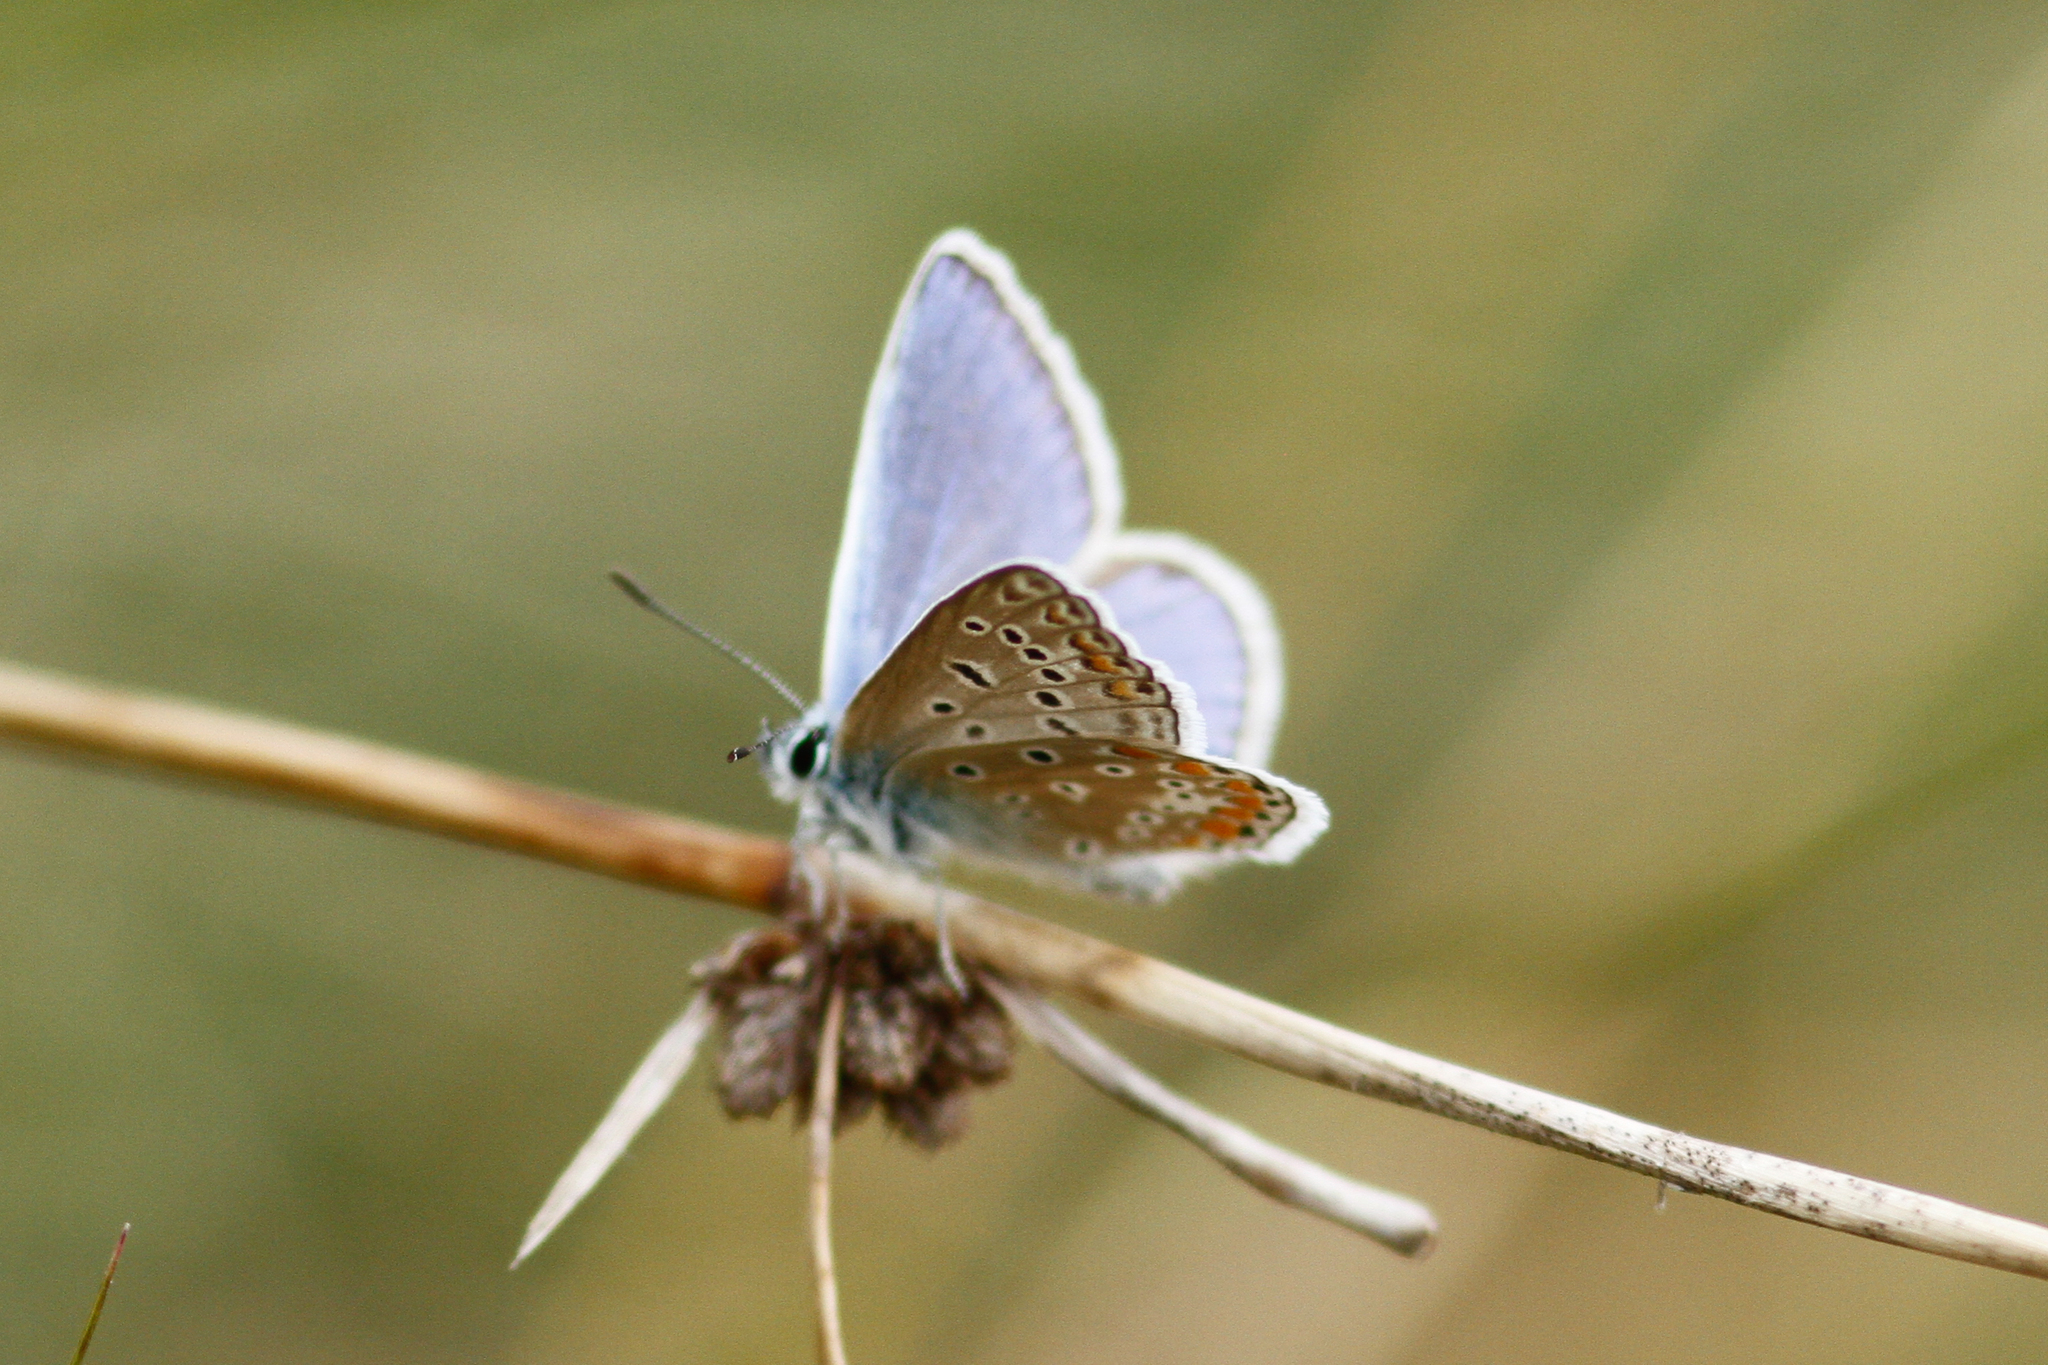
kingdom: Animalia
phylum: Arthropoda
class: Insecta
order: Lepidoptera
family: Lycaenidae
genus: Polyommatus
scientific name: Polyommatus icarus
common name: Common blue
